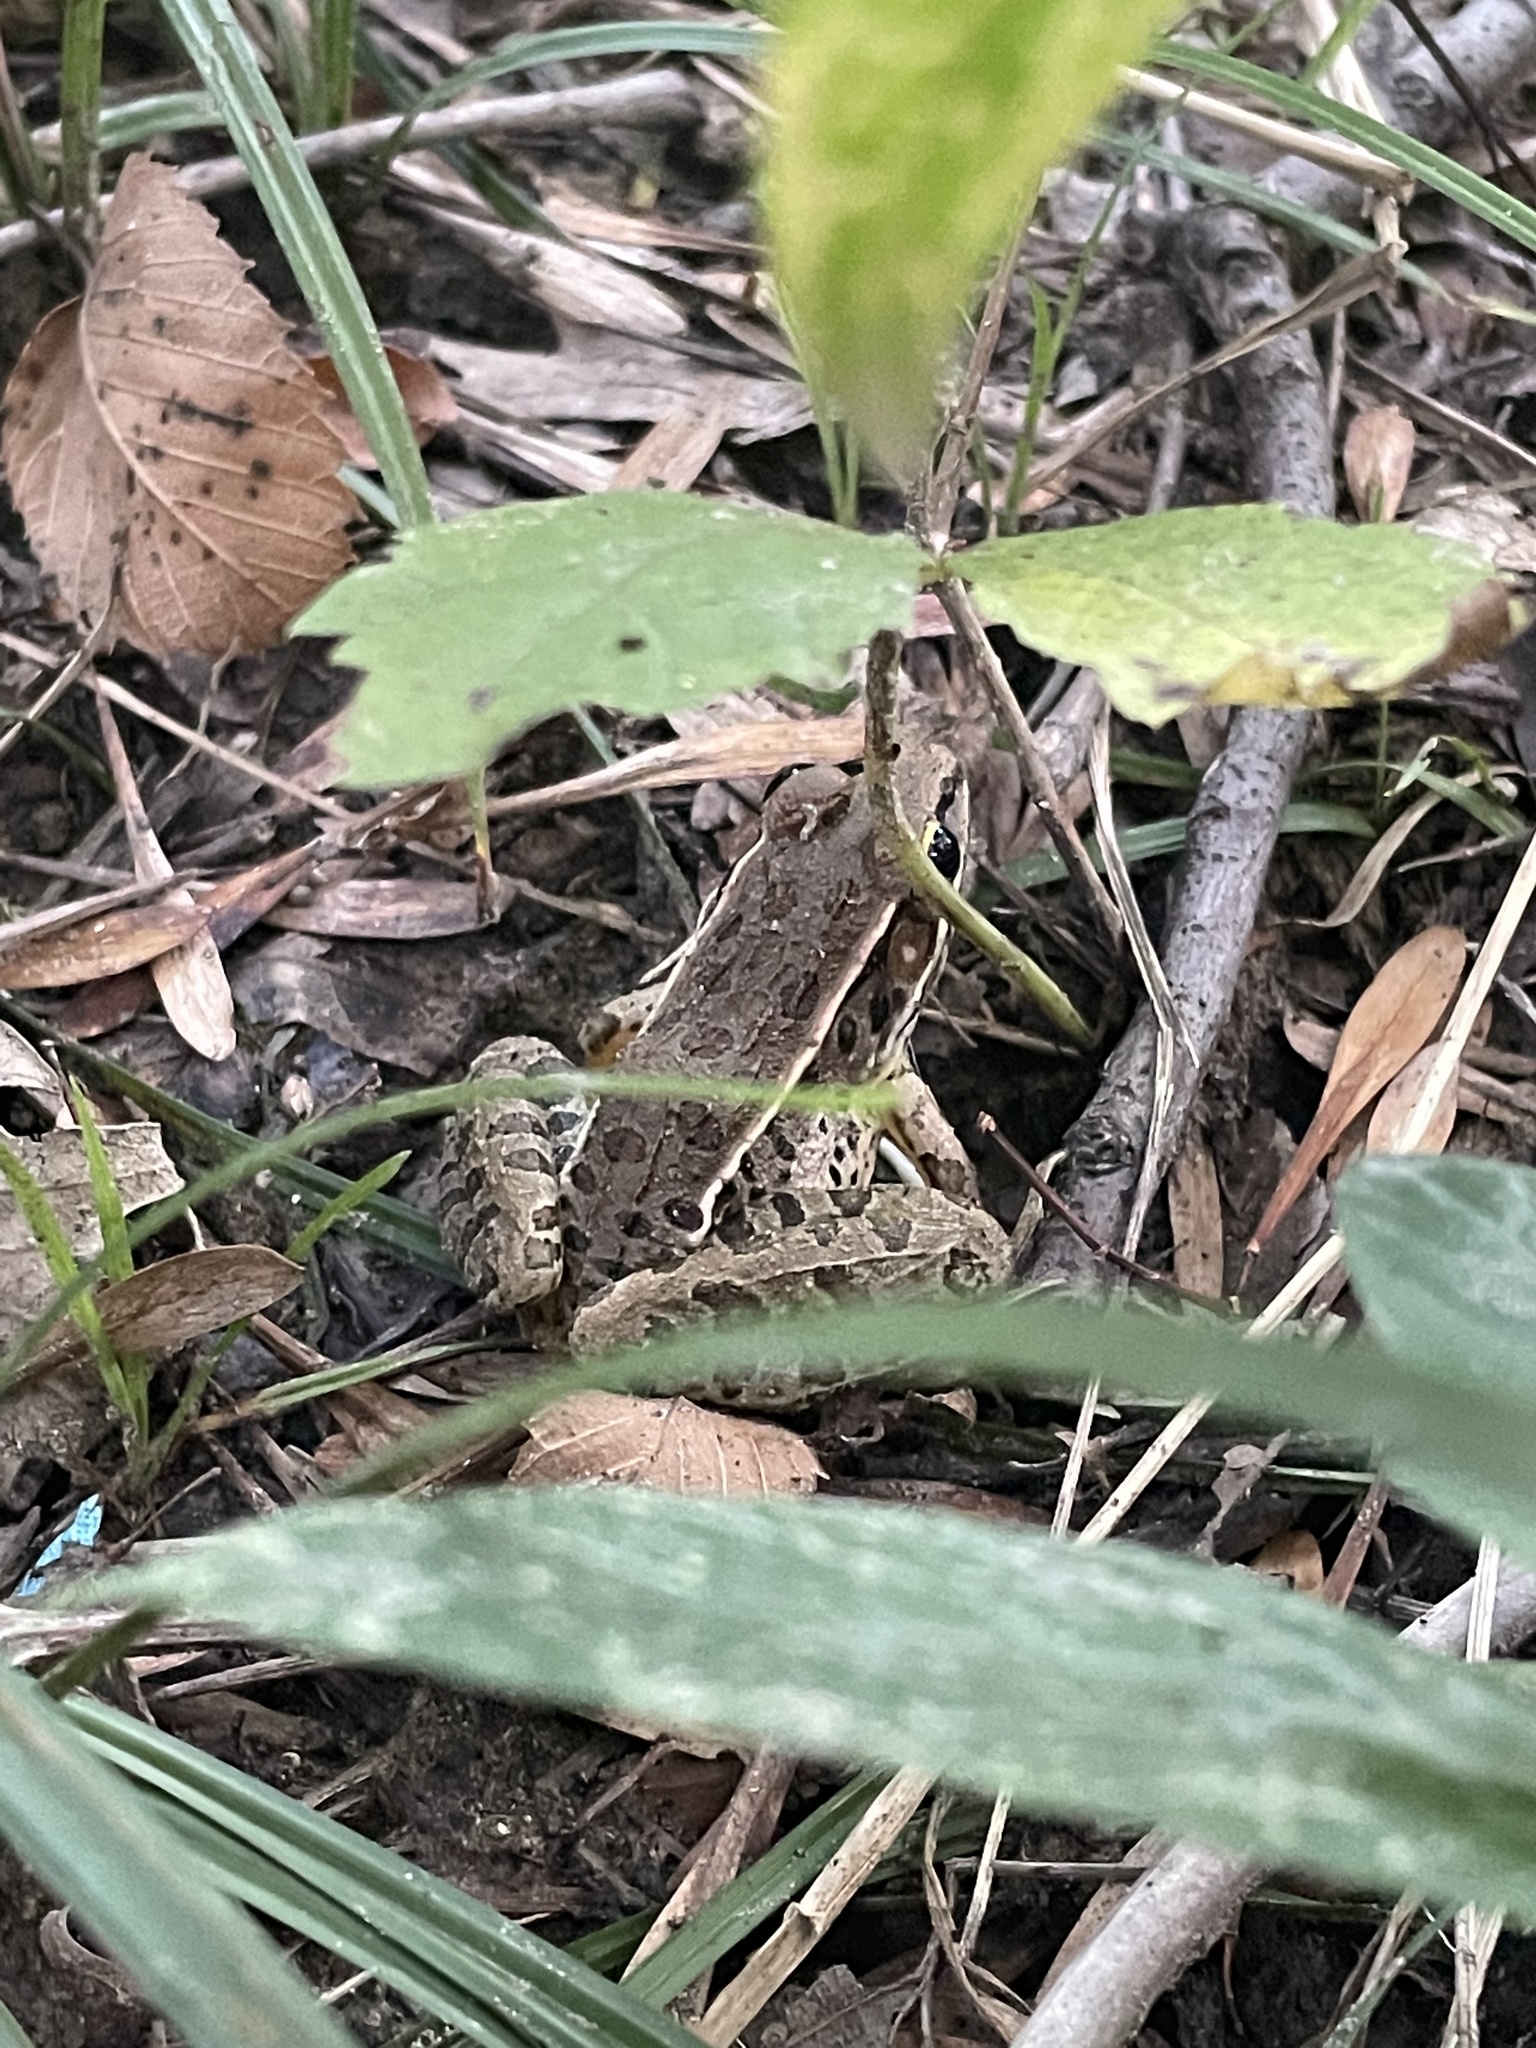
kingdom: Animalia
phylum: Chordata
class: Amphibia
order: Anura
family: Ranidae
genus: Lithobates
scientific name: Lithobates sphenocephalus
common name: Southern leopard frog
